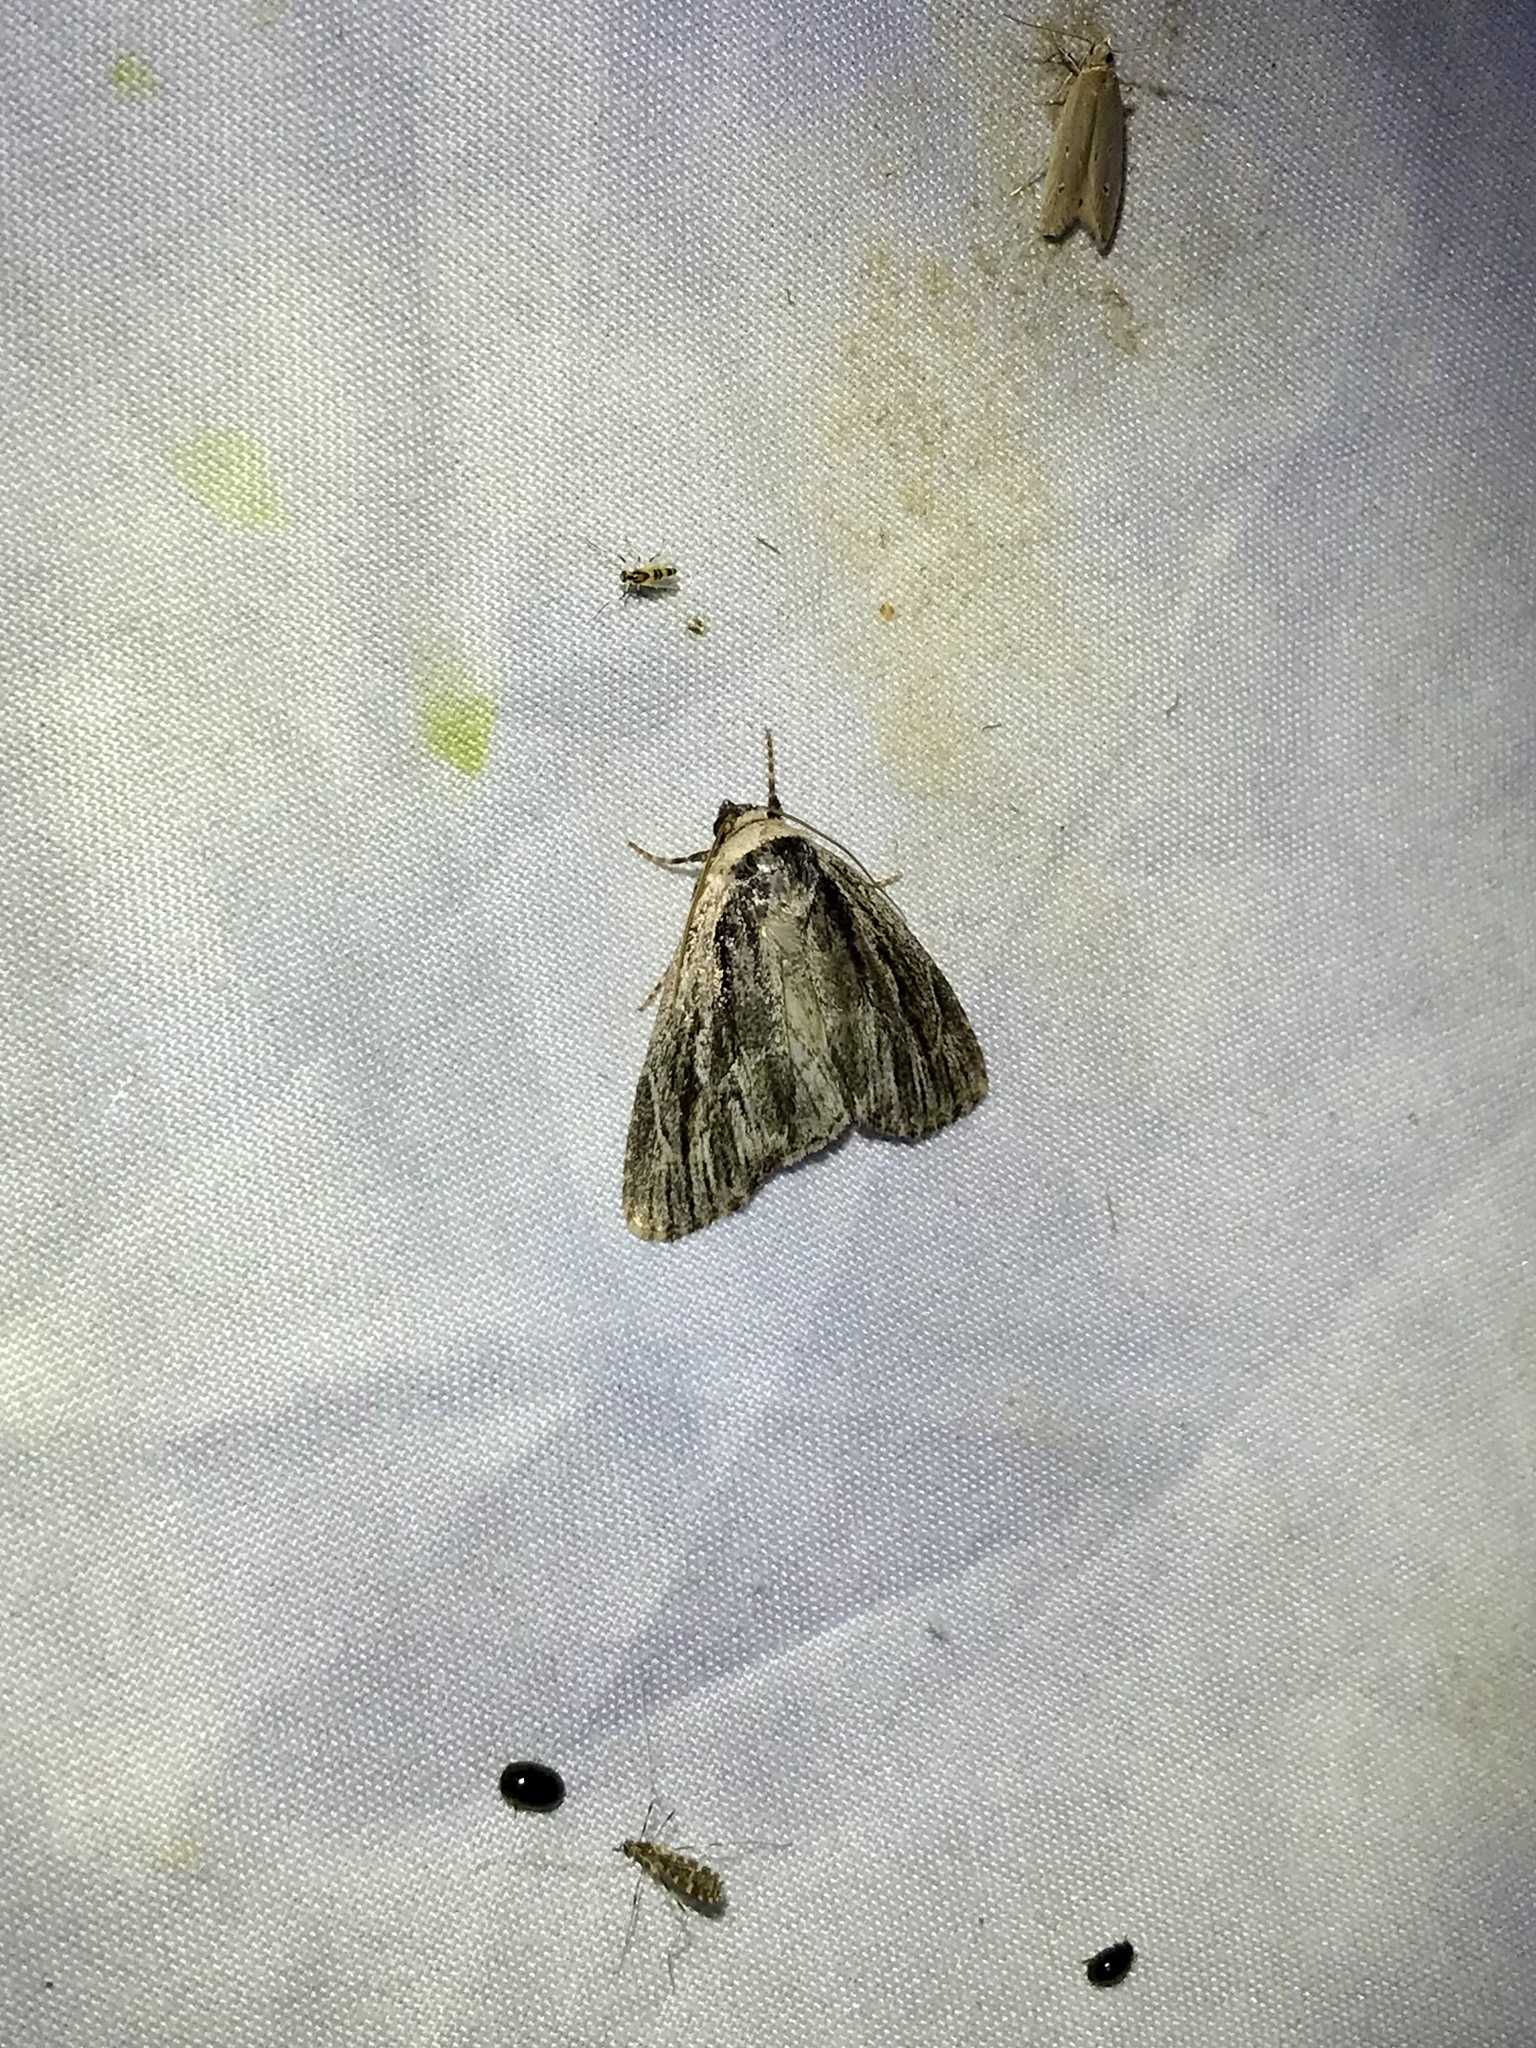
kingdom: Animalia
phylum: Arthropoda
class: Insecta
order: Lepidoptera
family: Noctuidae
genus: Sympistis
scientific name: Sympistis badistriga
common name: Brown-lined sallow moth
